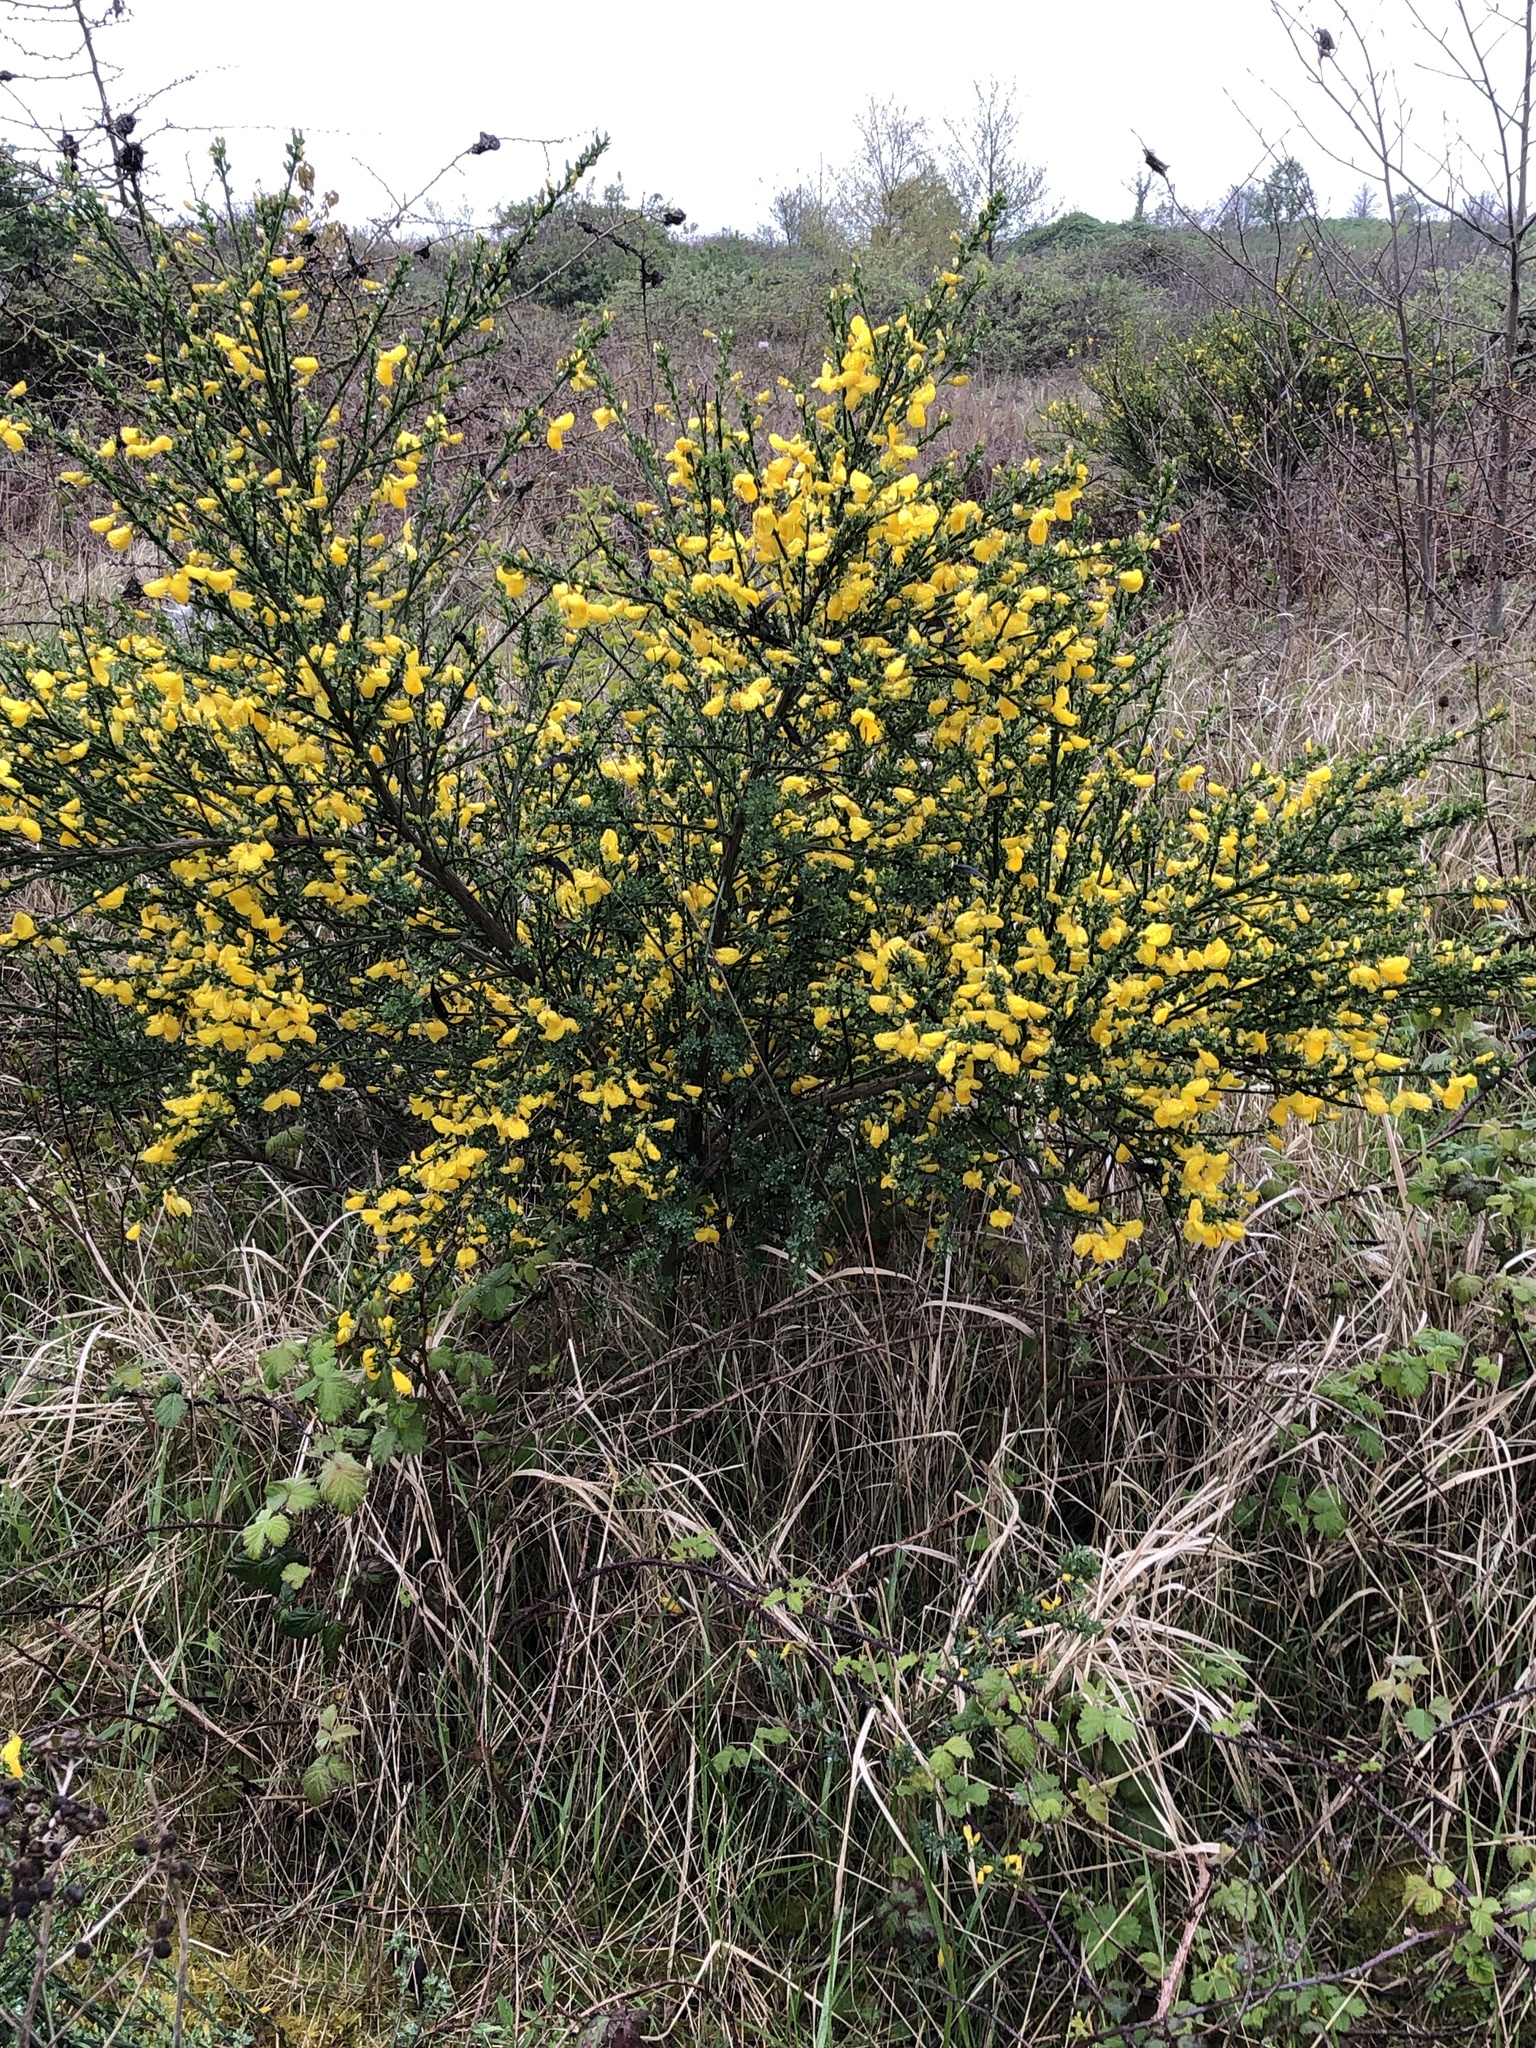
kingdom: Plantae
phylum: Tracheophyta
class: Magnoliopsida
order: Fabales
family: Fabaceae
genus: Cytisus
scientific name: Cytisus scoparius
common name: Scotch broom
